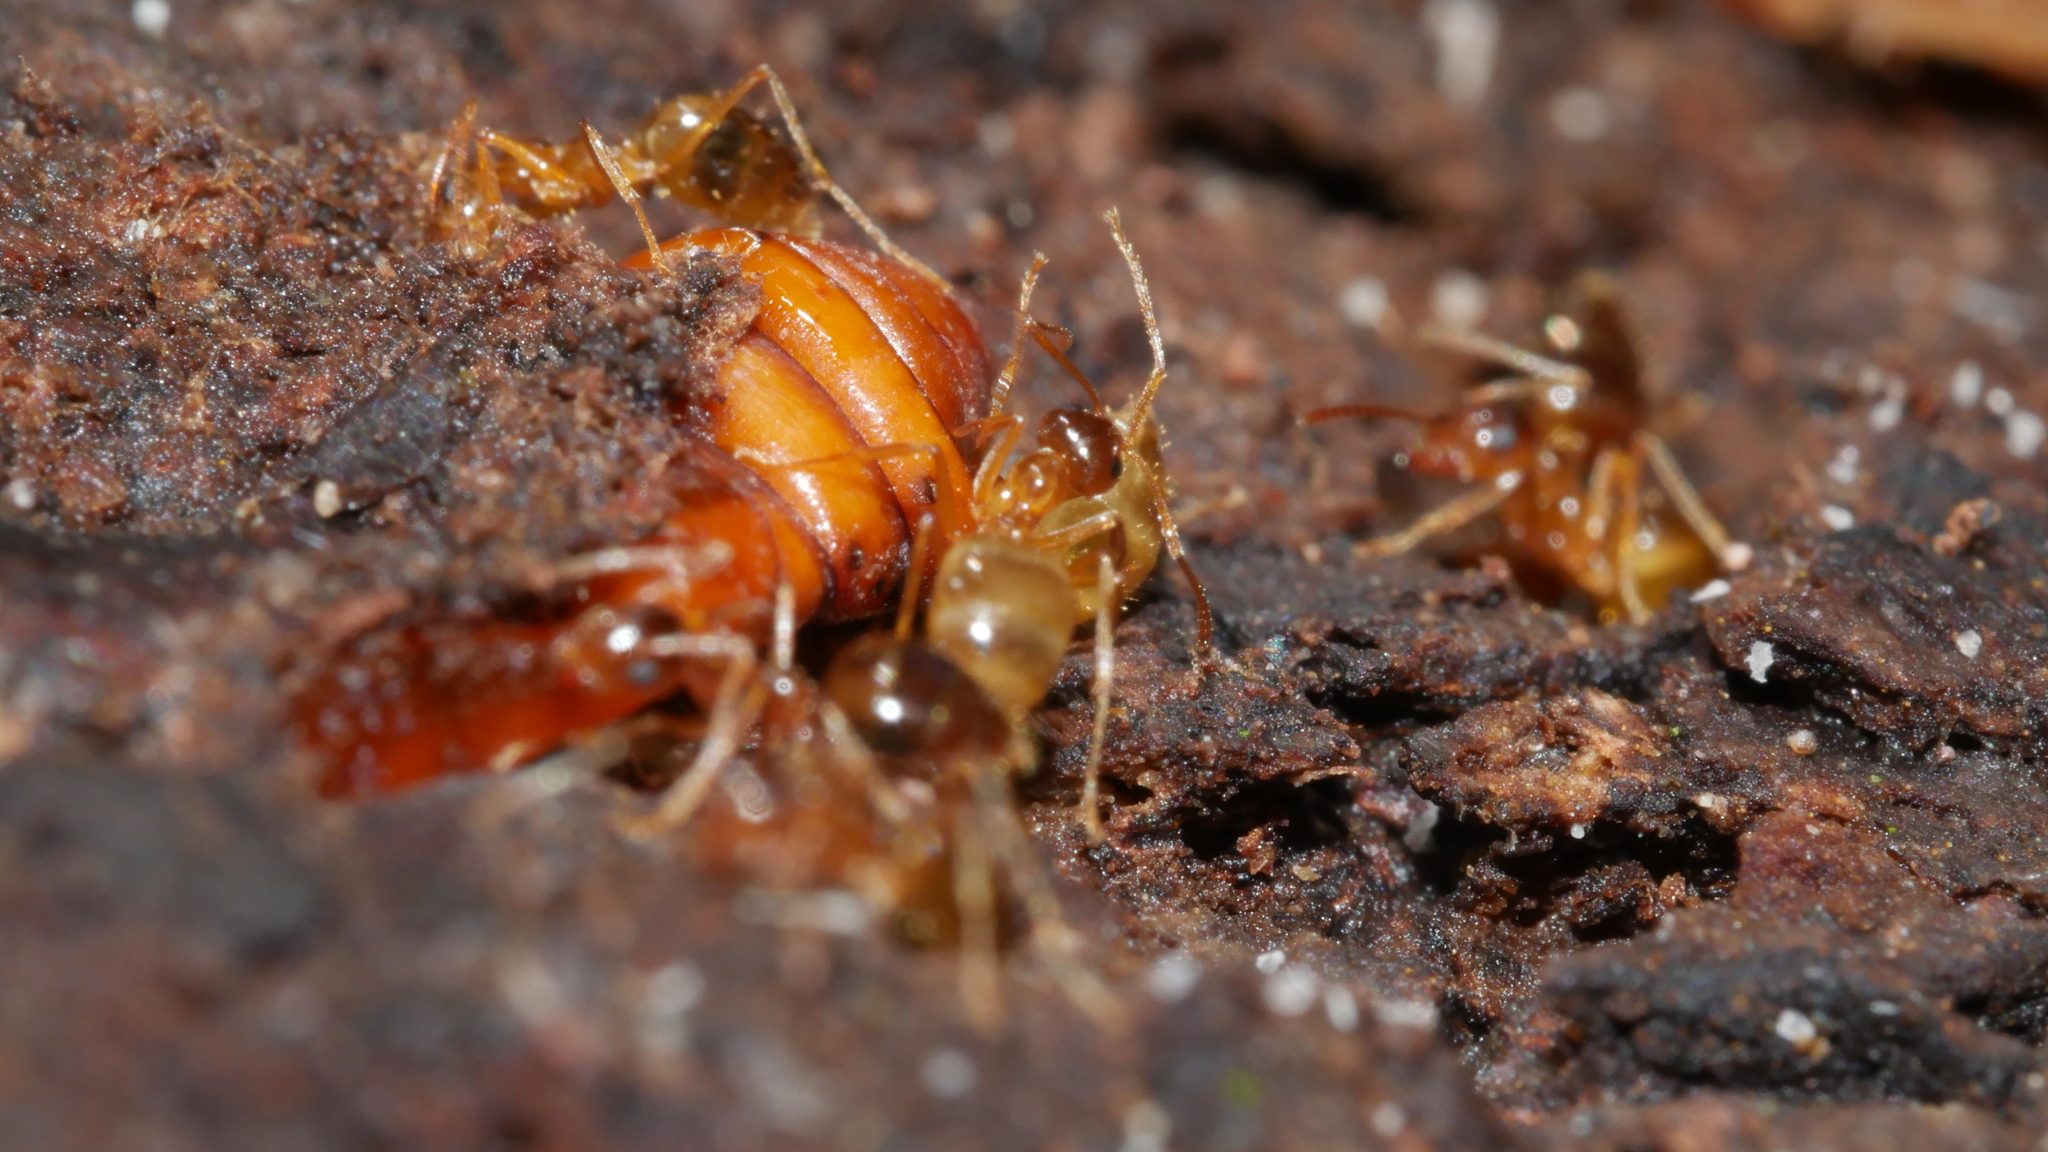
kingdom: Animalia
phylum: Arthropoda
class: Insecta
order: Hymenoptera
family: Formicidae
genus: Prenolepis
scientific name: Prenolepis imparis
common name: Small honey ant
